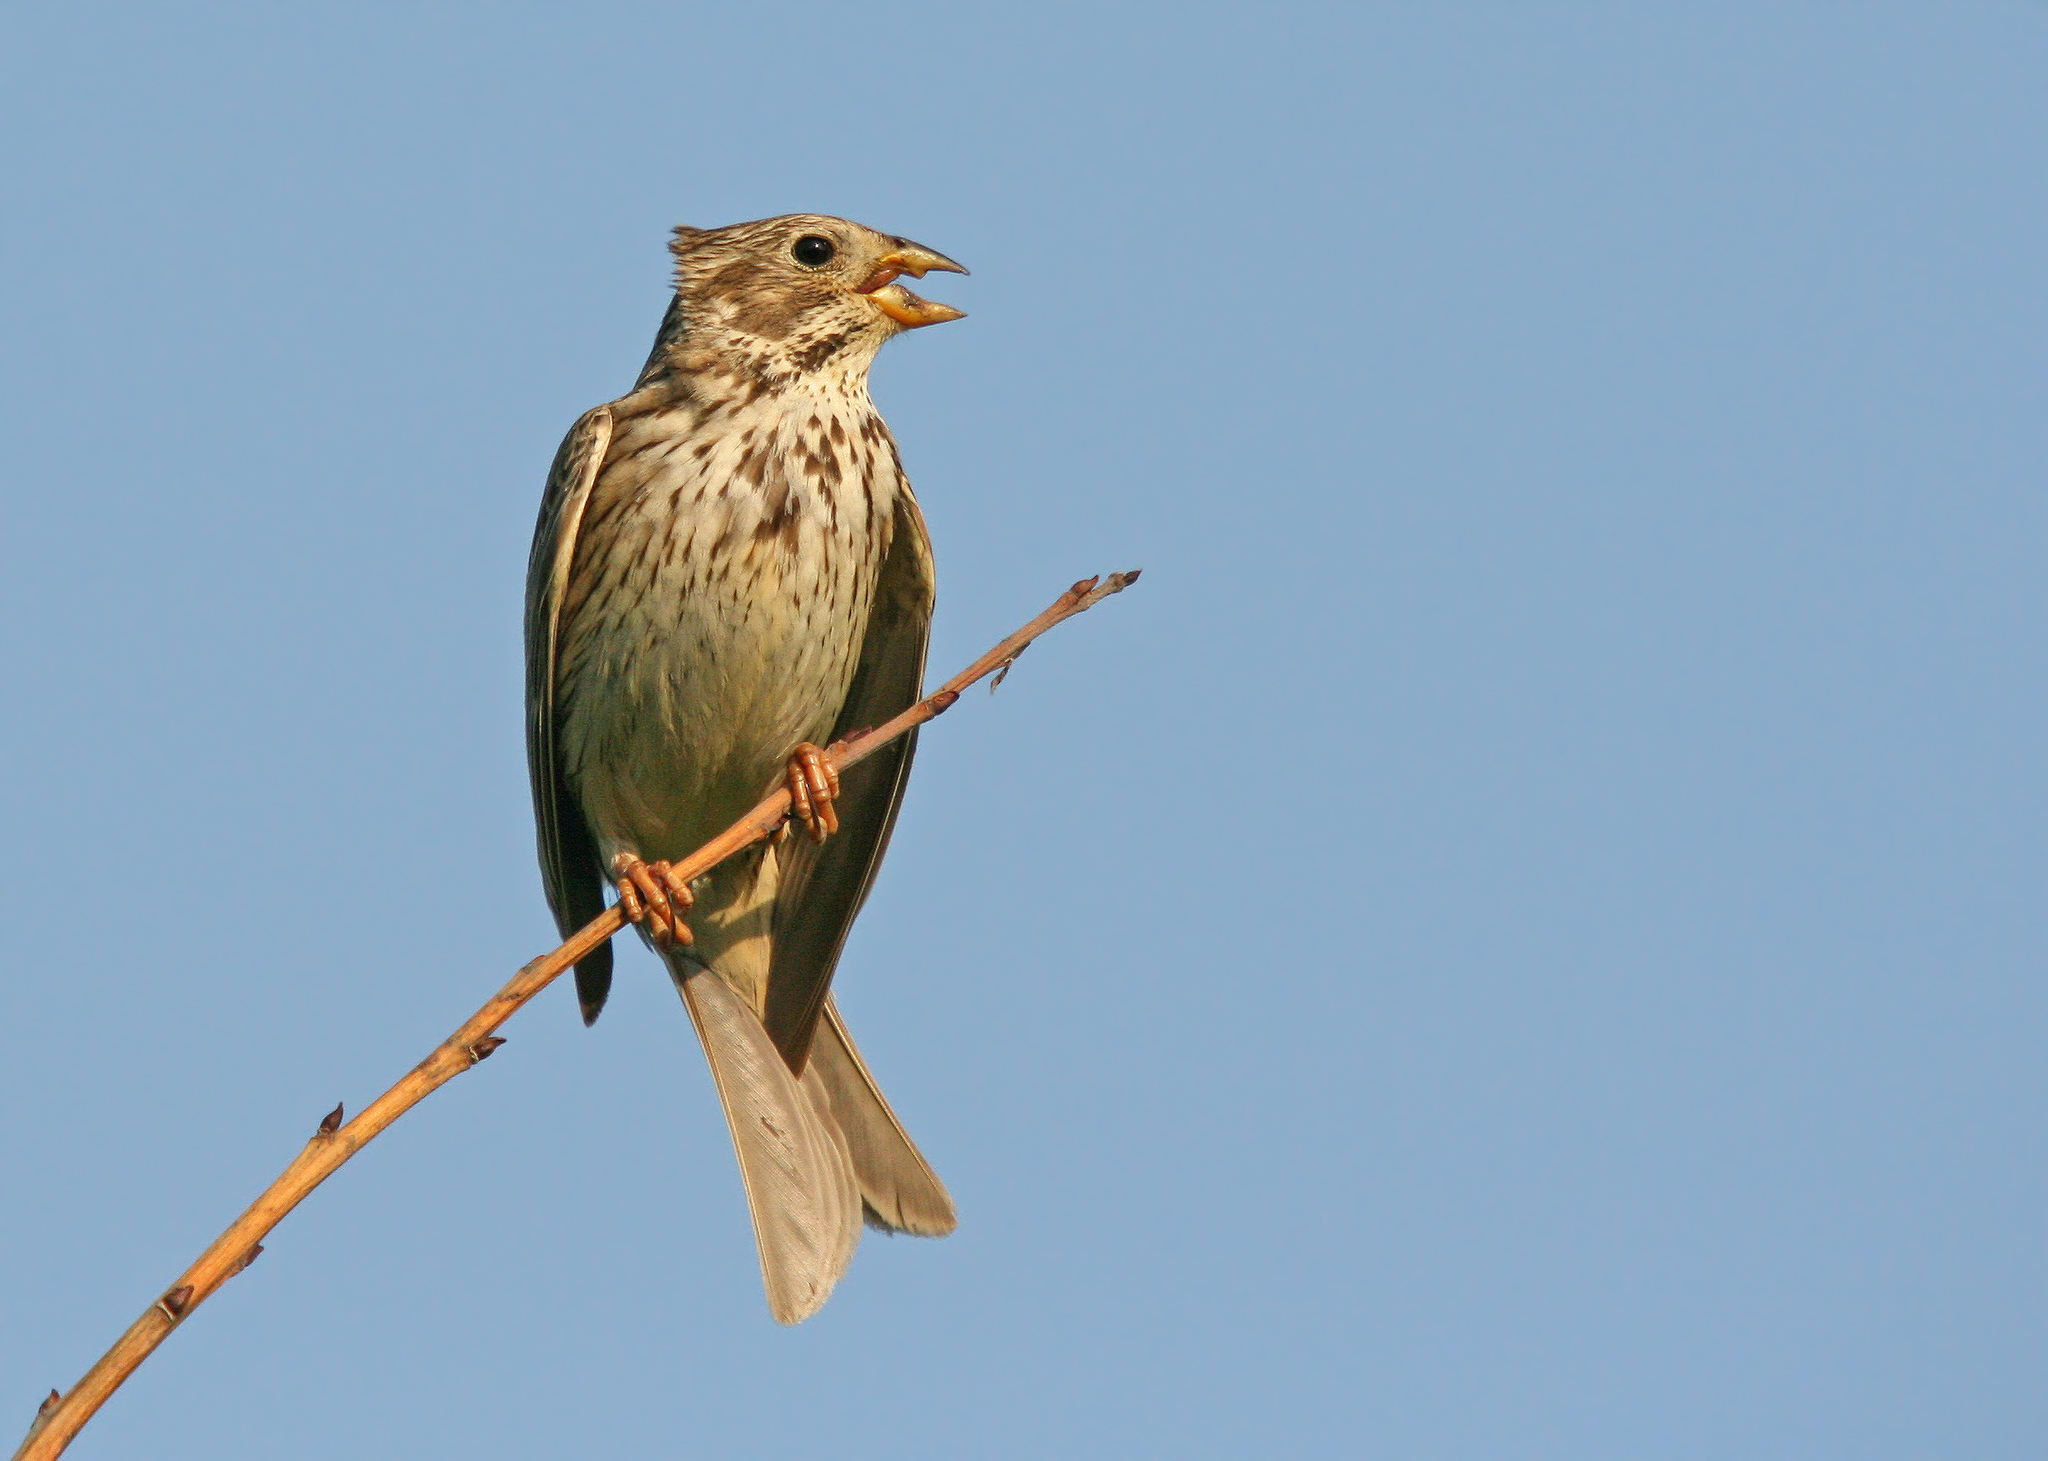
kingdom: Animalia
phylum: Chordata
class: Aves
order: Passeriformes
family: Emberizidae
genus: Emberiza
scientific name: Emberiza calandra
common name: Corn bunting
